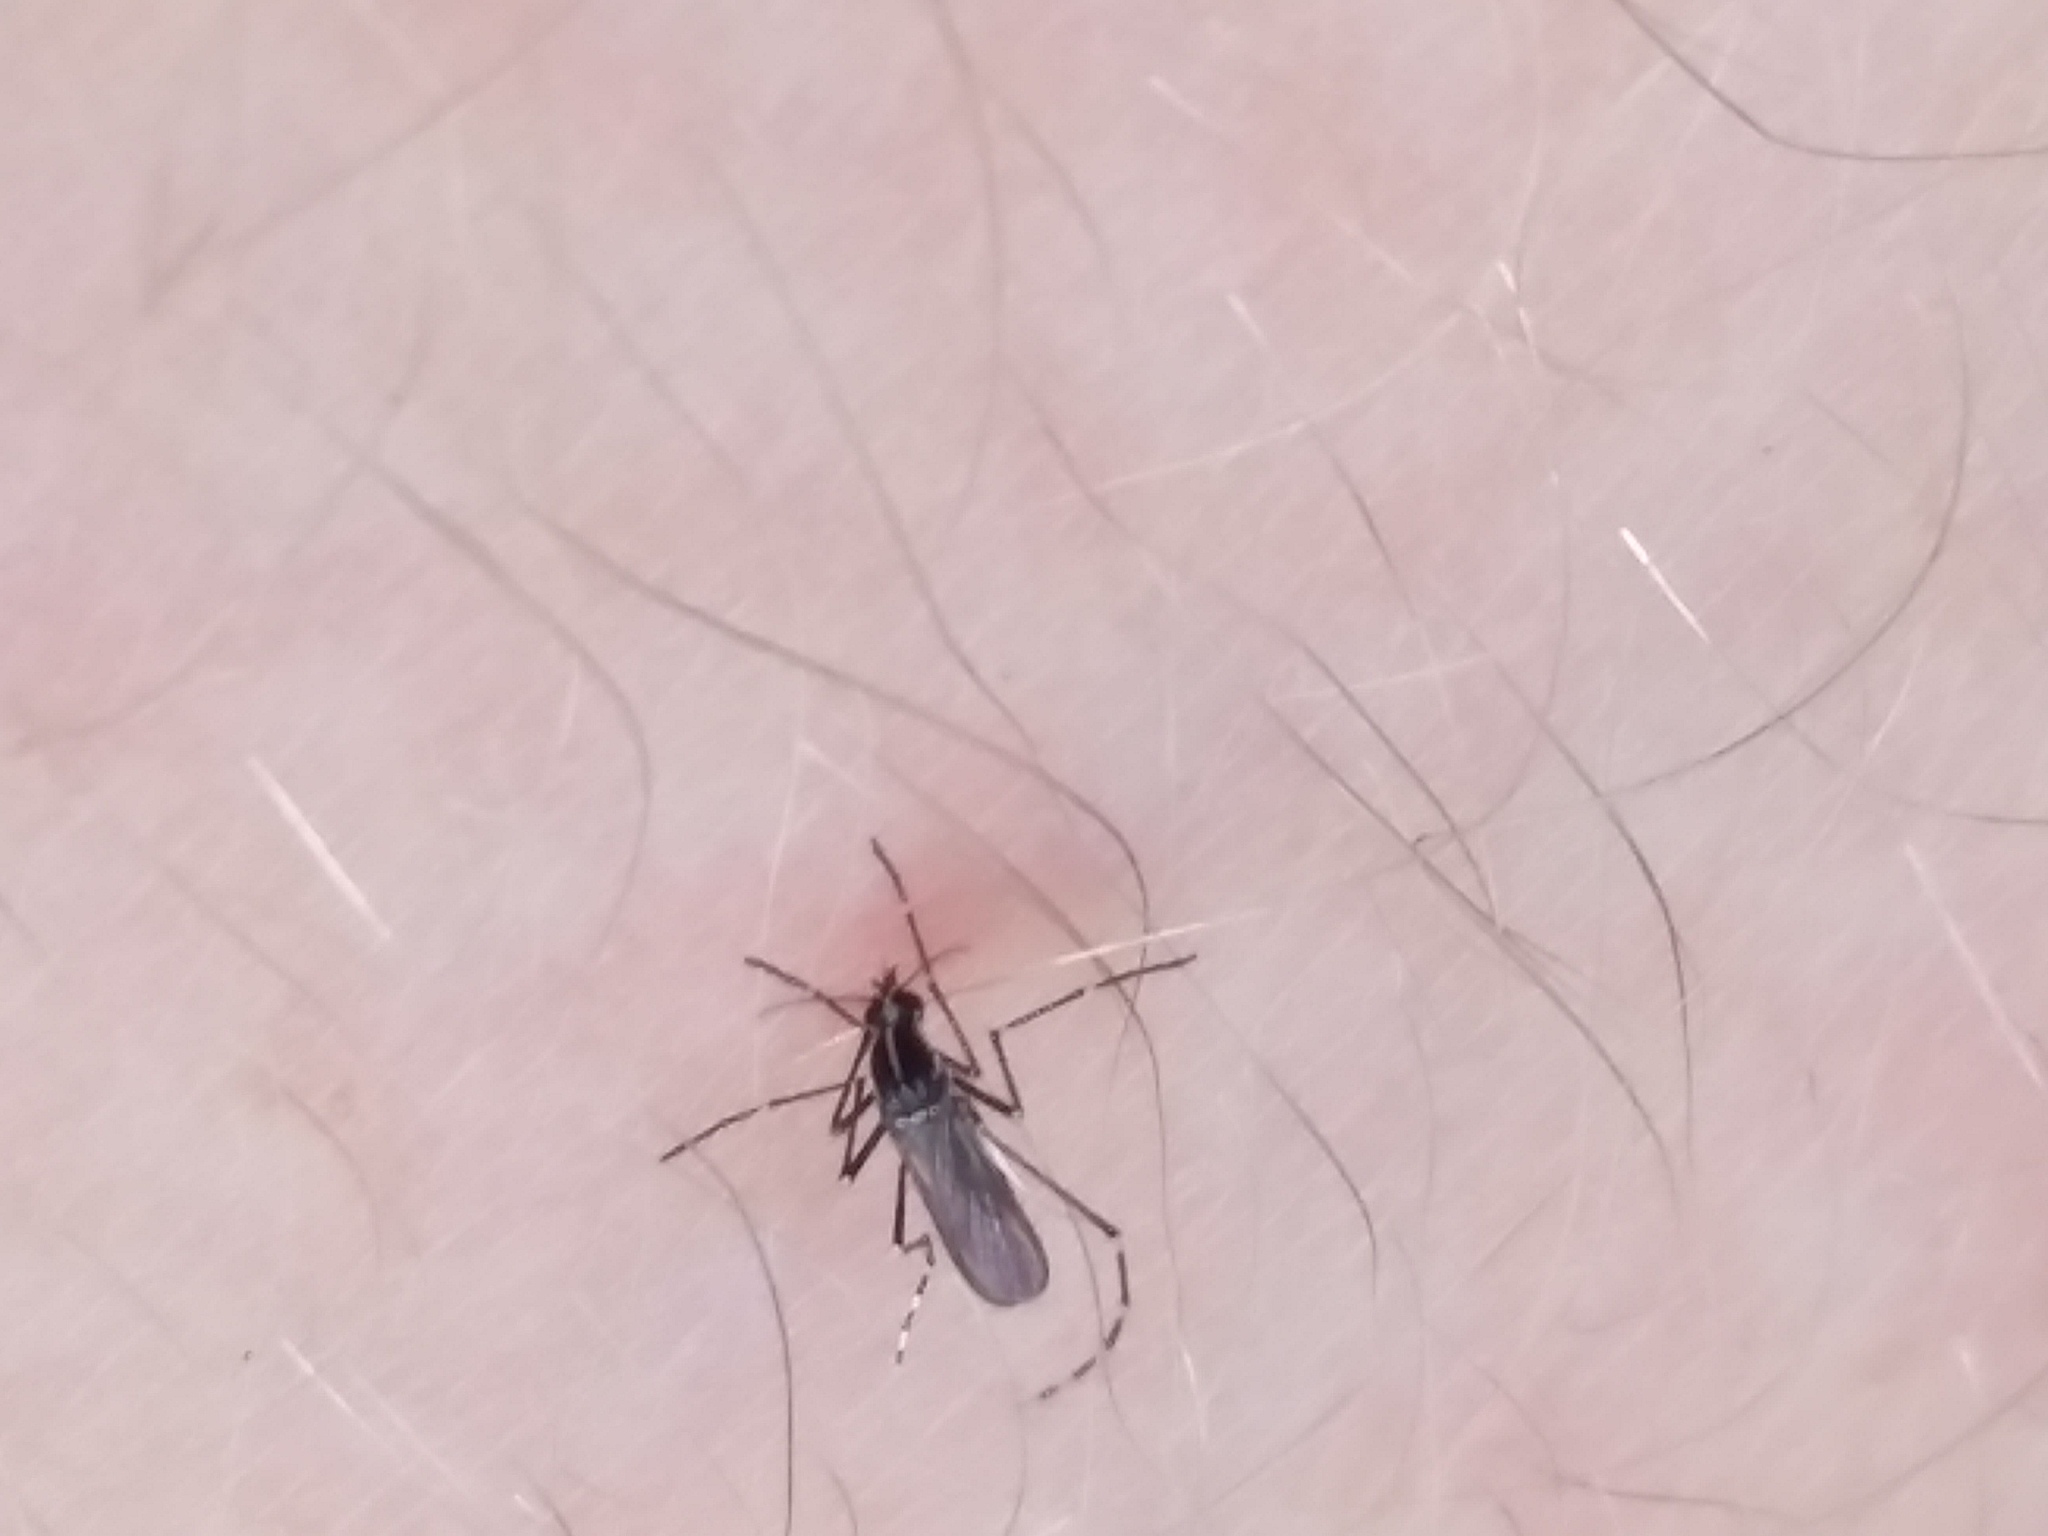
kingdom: Animalia
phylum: Arthropoda
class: Insecta
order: Diptera
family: Culicidae
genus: Aedes
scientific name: Aedes albopictus
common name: Tiger mosquito
